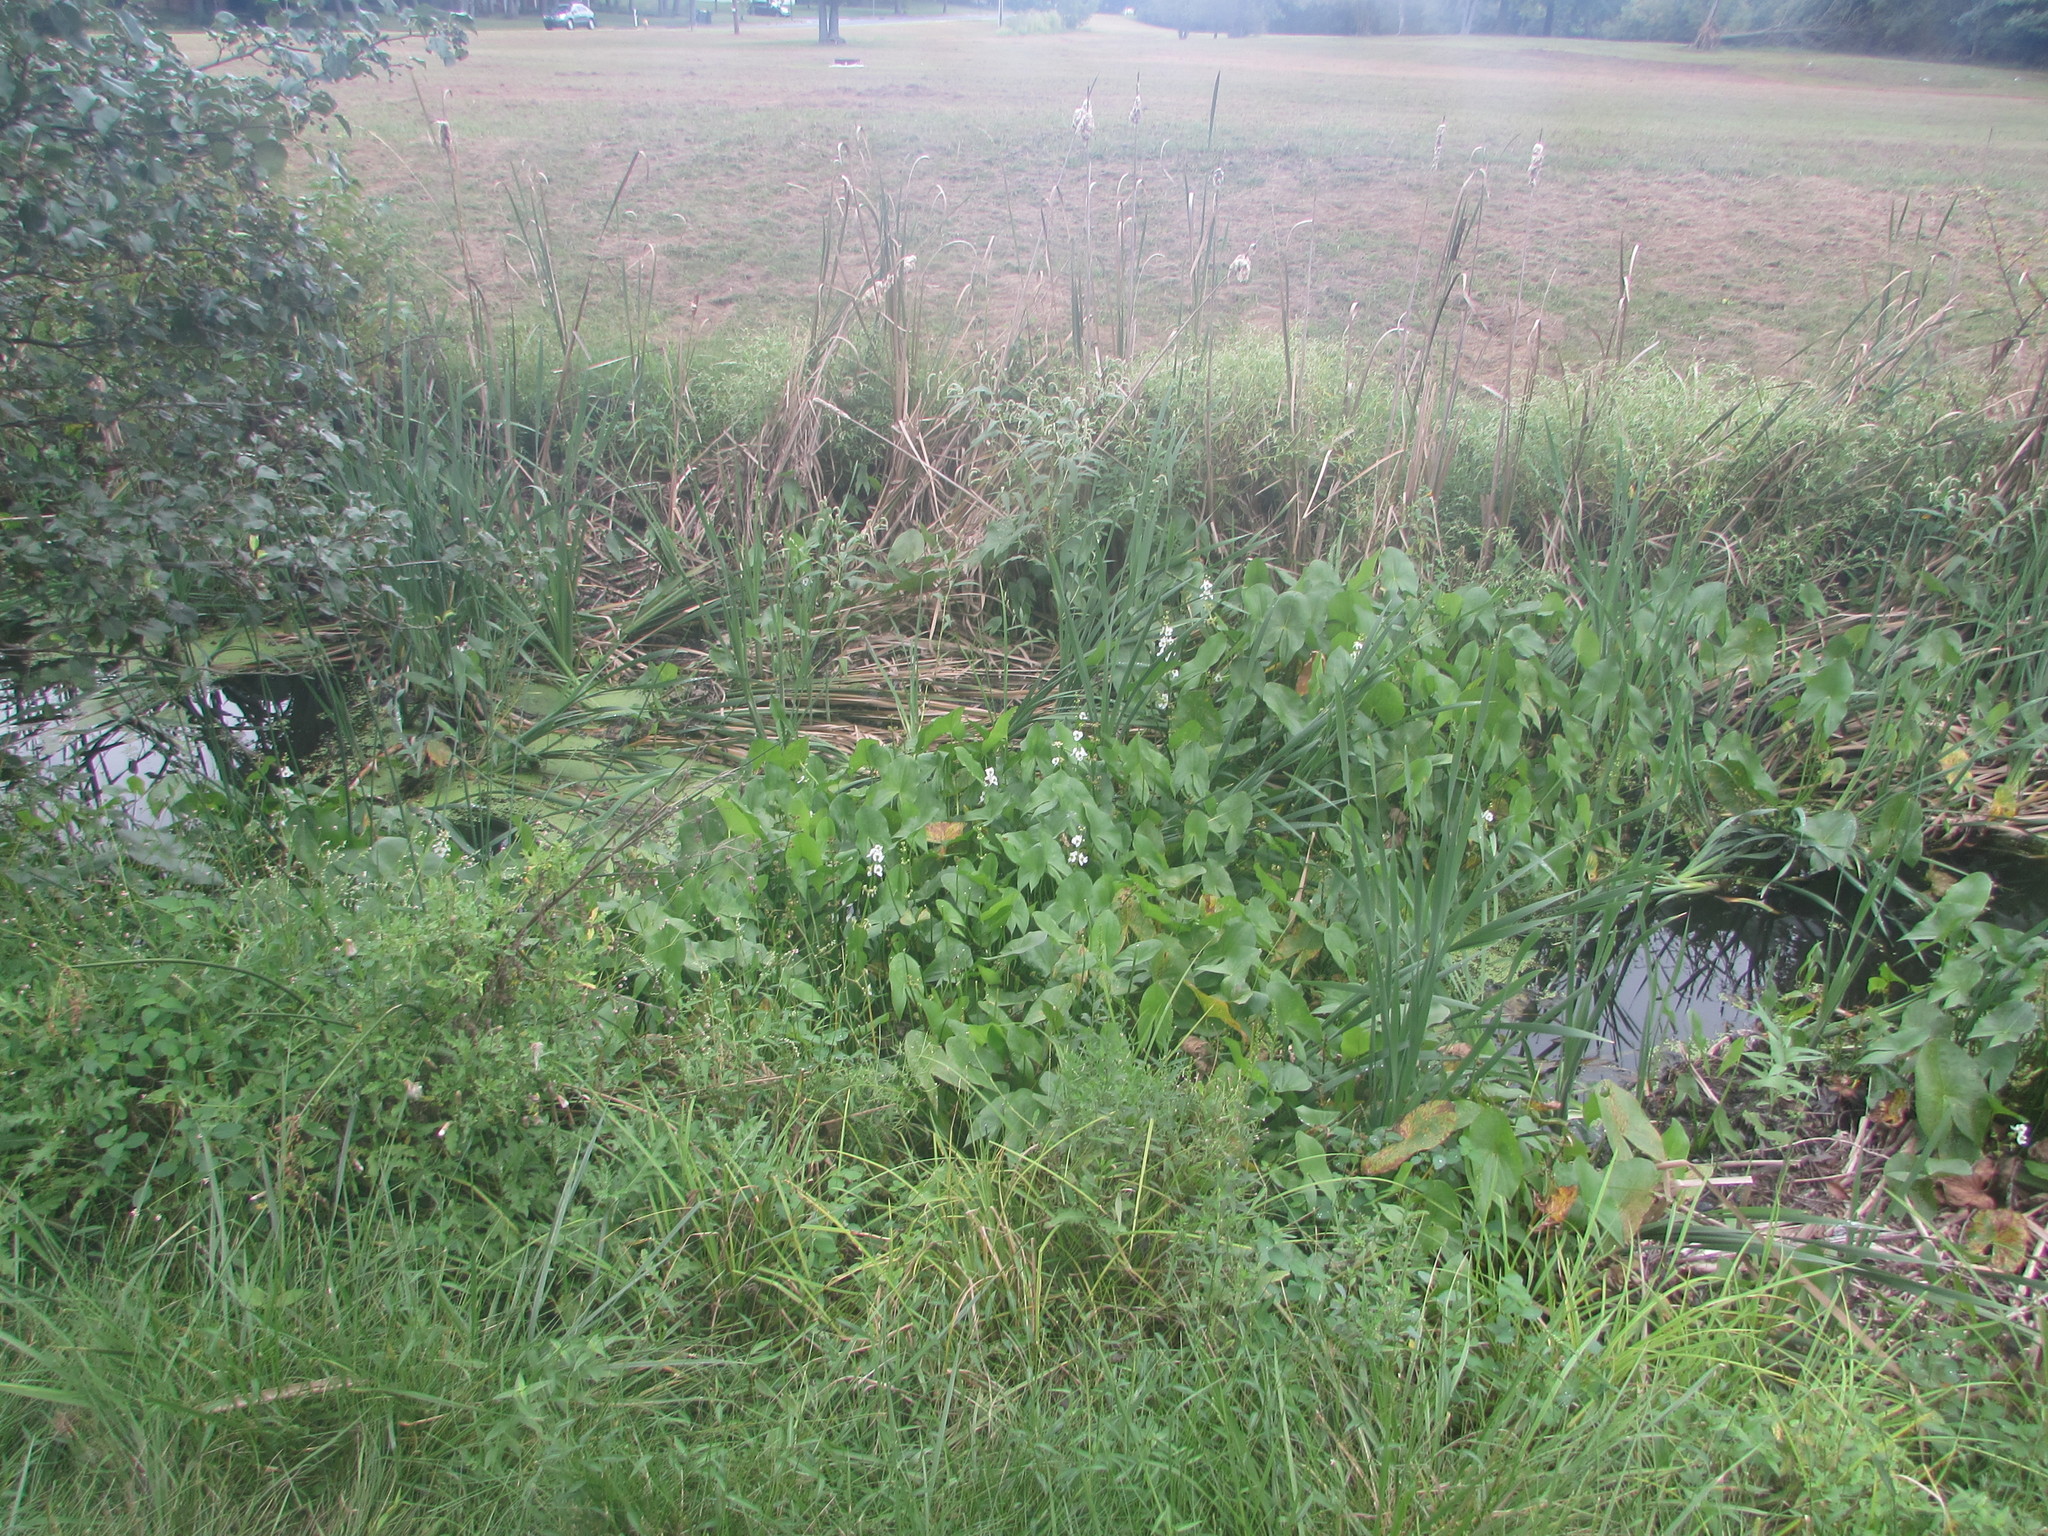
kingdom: Plantae
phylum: Tracheophyta
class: Liliopsida
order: Alismatales
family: Alismataceae
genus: Sagittaria
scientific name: Sagittaria latifolia
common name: Duck-potato
